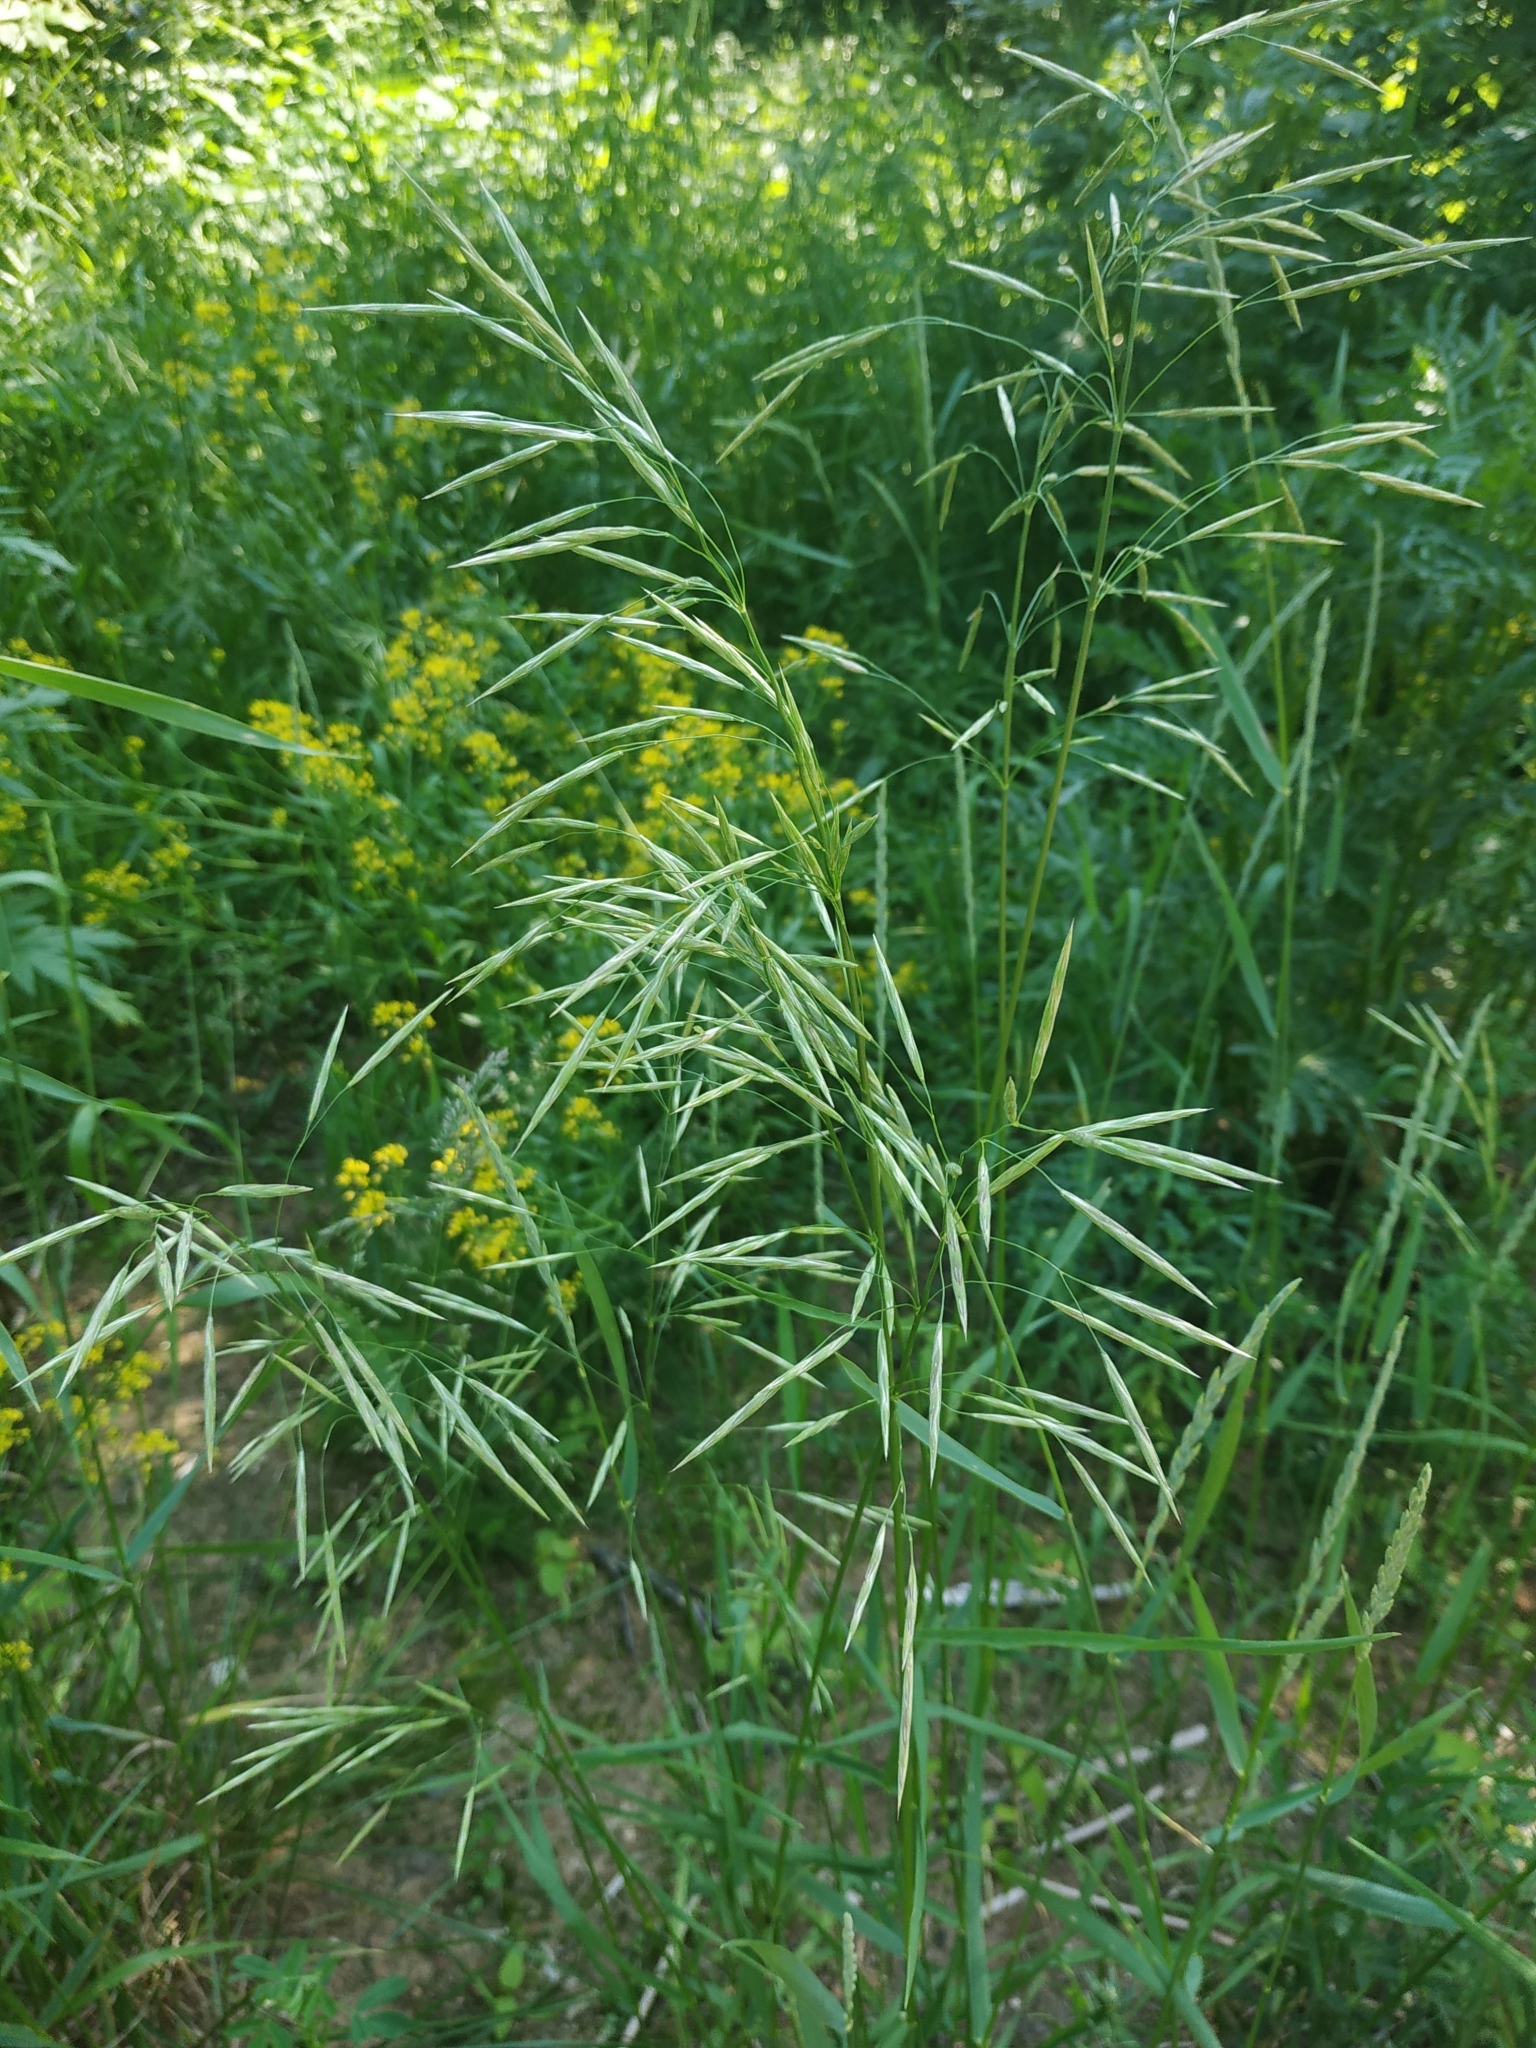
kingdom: Plantae
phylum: Tracheophyta
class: Liliopsida
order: Poales
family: Poaceae
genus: Bromus
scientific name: Bromus inermis
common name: Smooth brome
